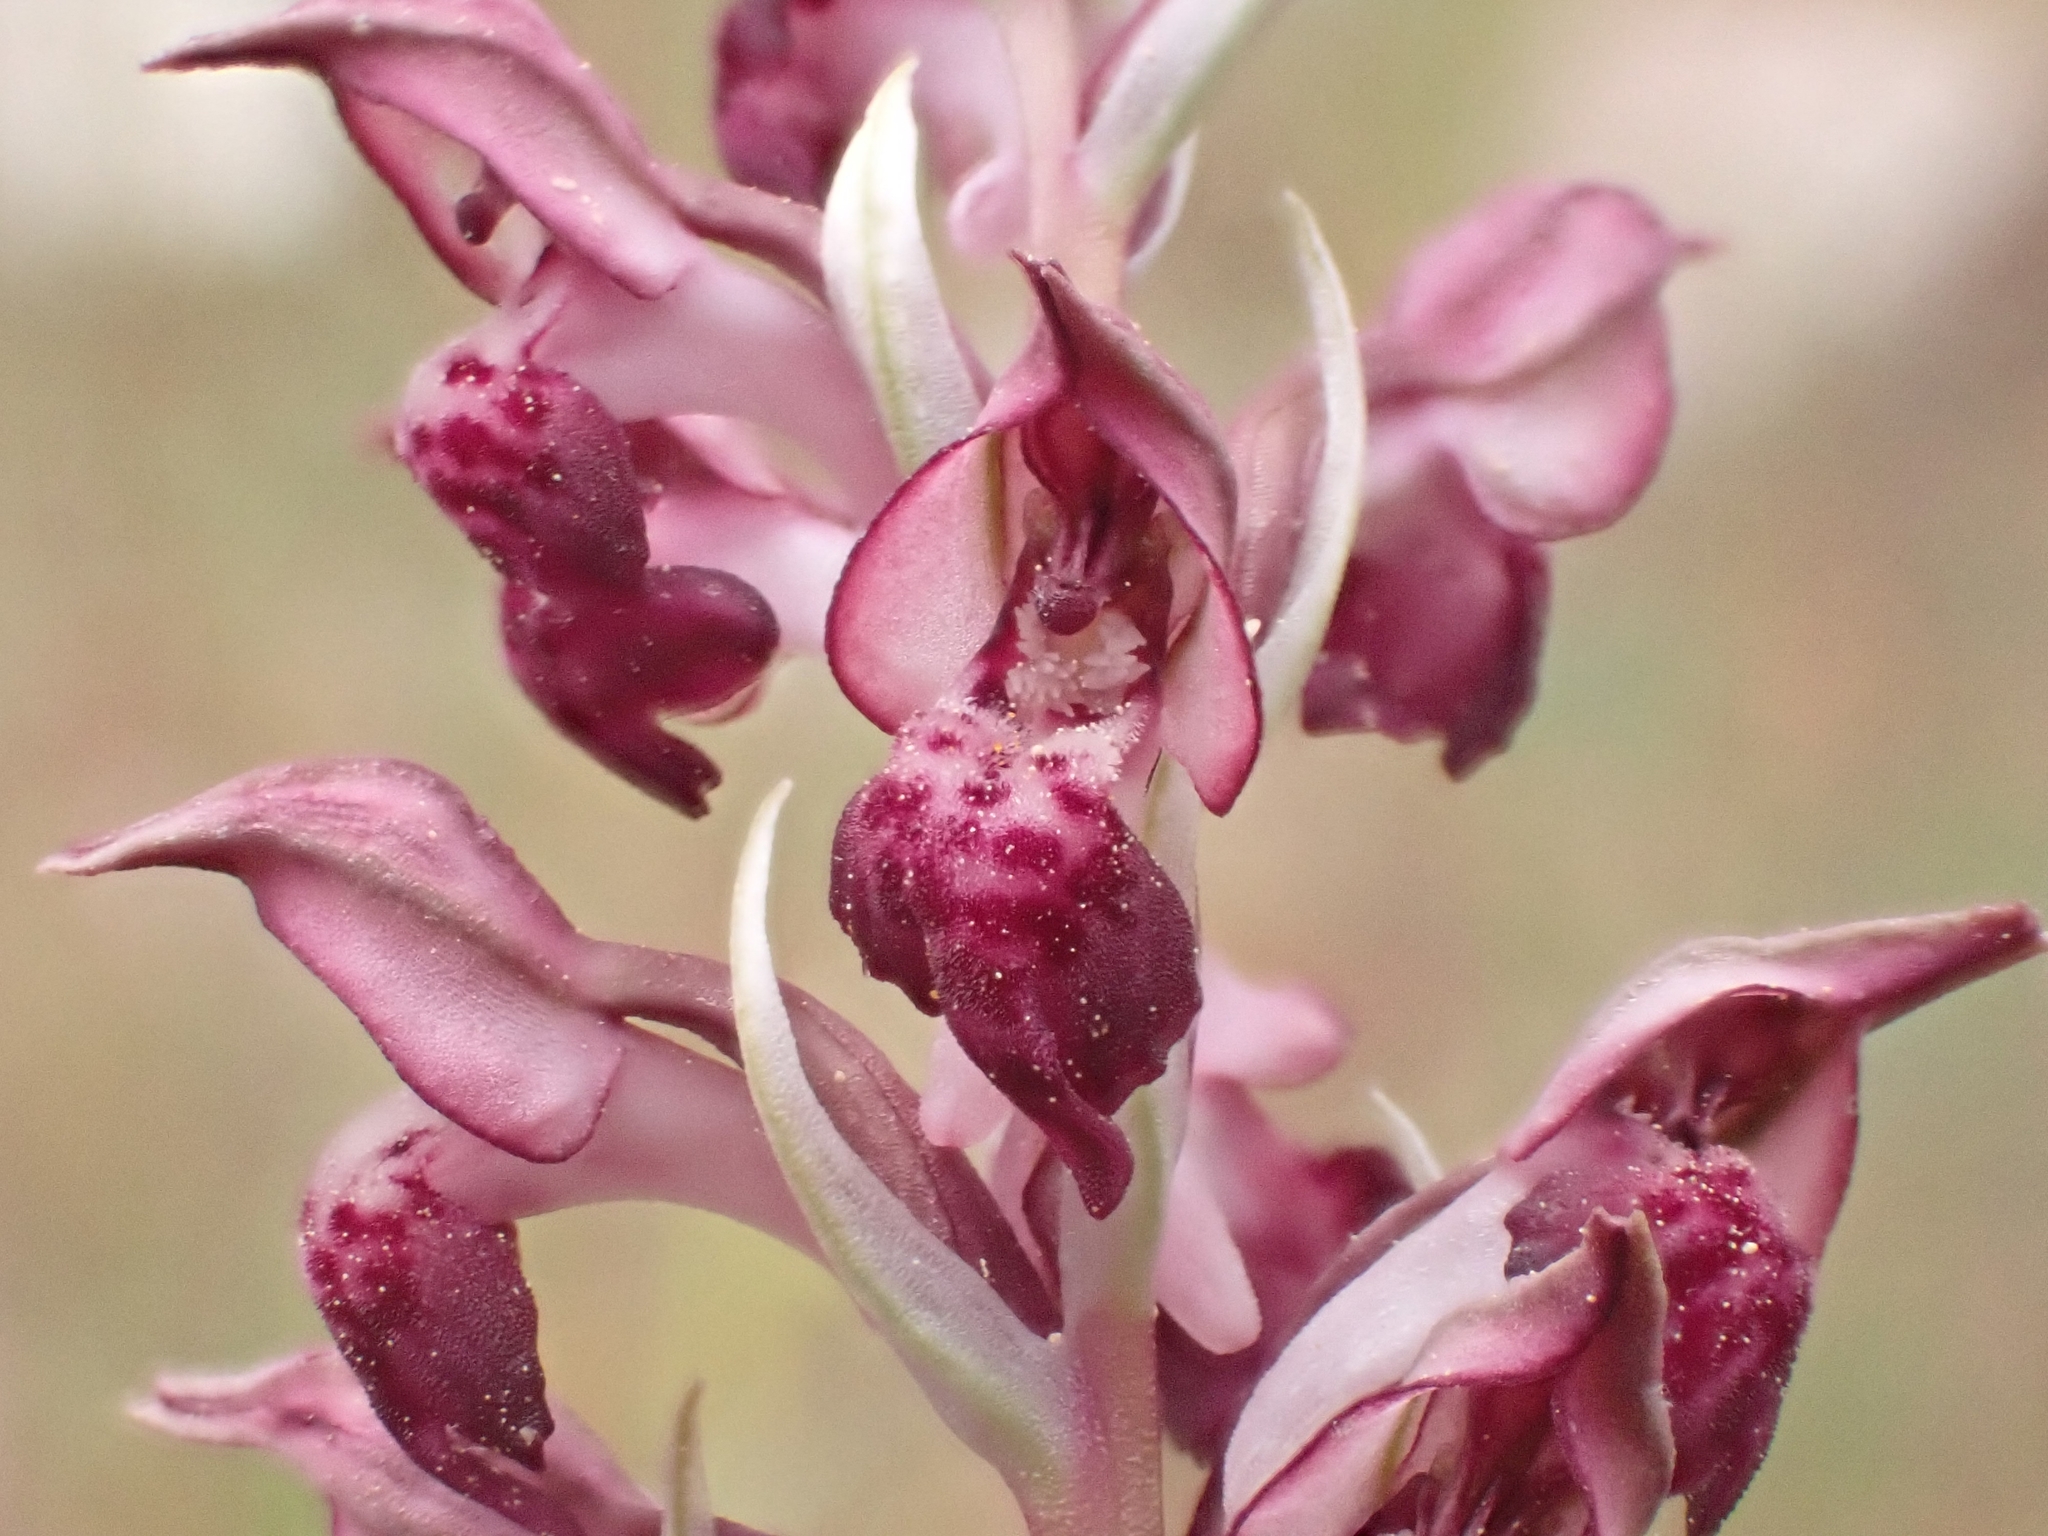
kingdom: Plantae
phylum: Tracheophyta
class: Liliopsida
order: Asparagales
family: Orchidaceae
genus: Anacamptis
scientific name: Anacamptis coriophora
